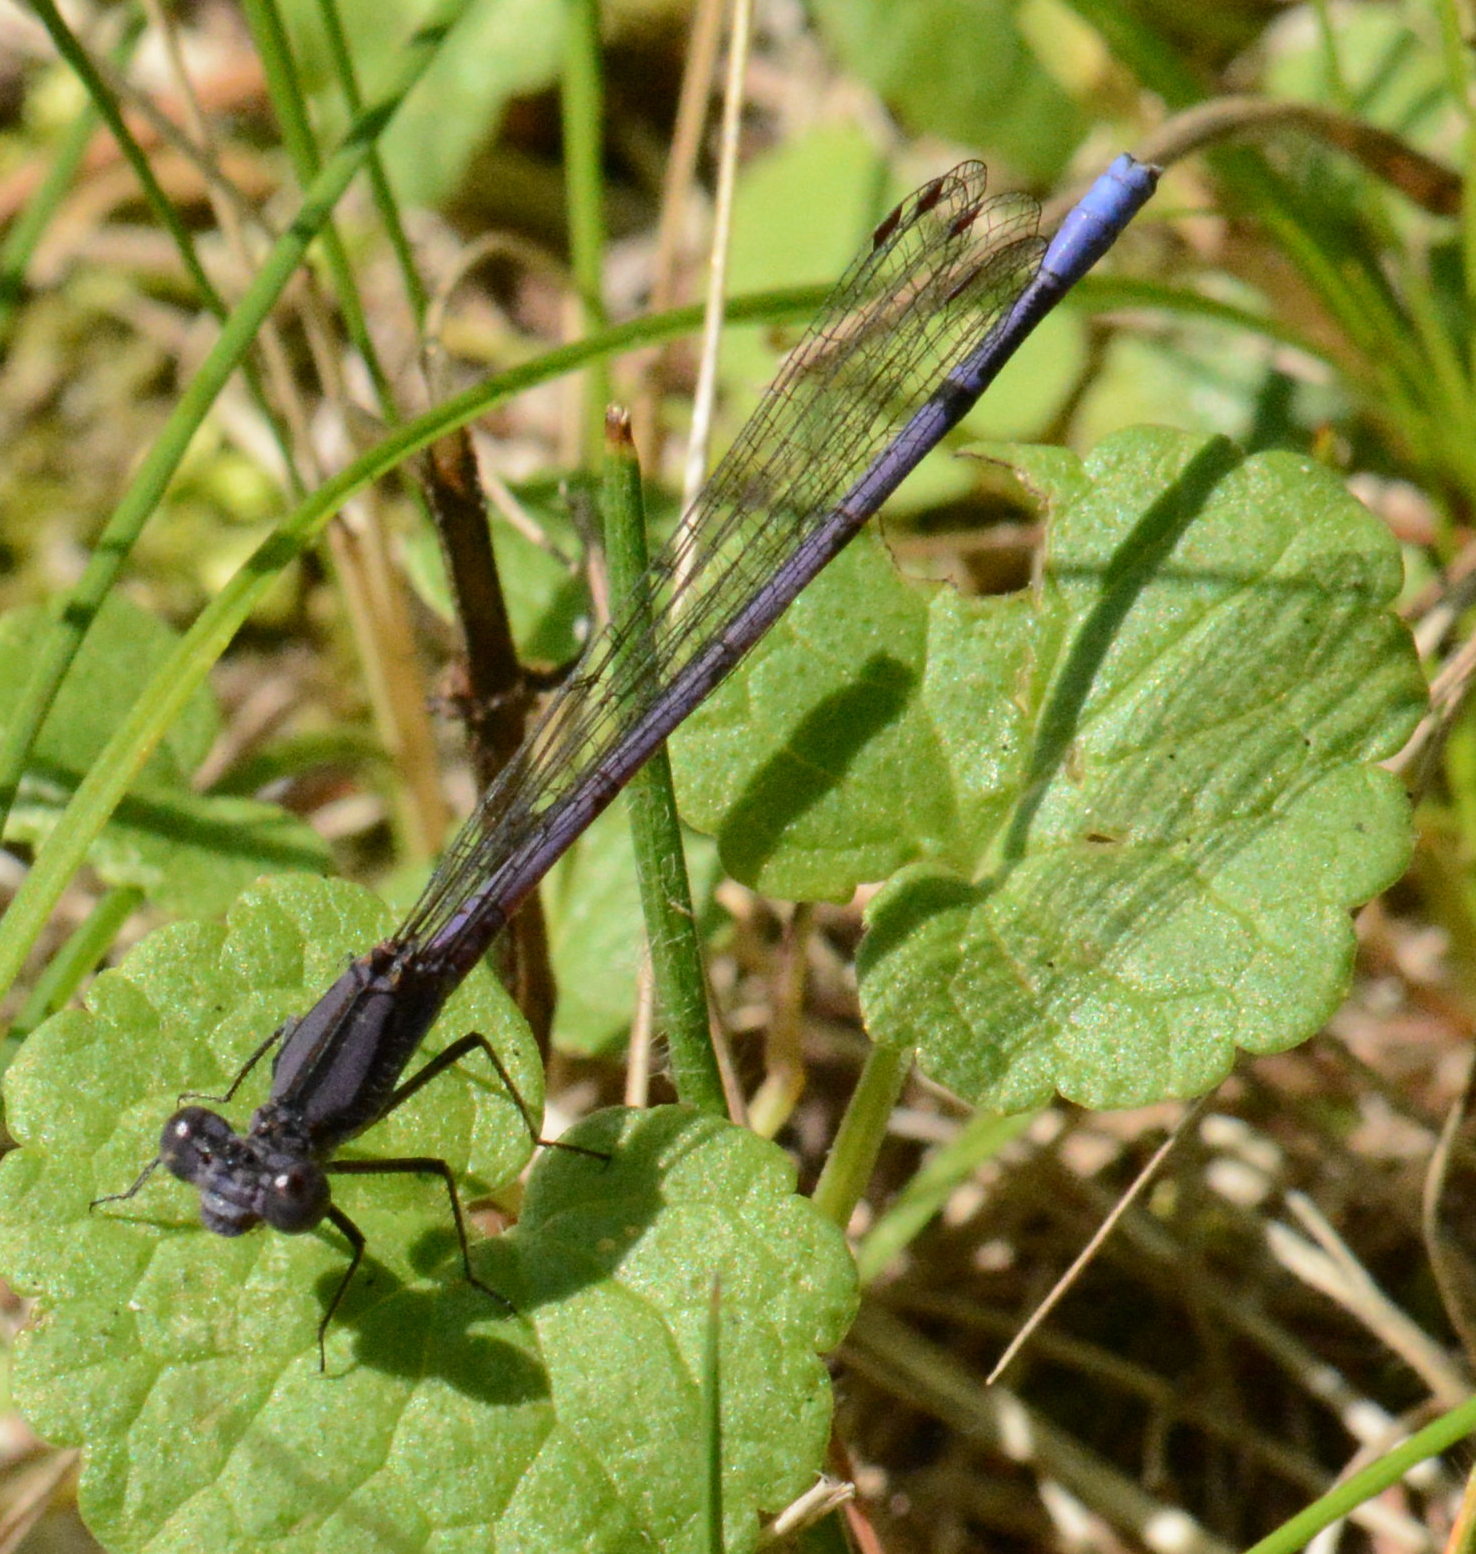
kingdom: Animalia
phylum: Arthropoda
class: Insecta
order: Odonata
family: Coenagrionidae
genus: Argia
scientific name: Argia fumipennis
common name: Variable dancer
